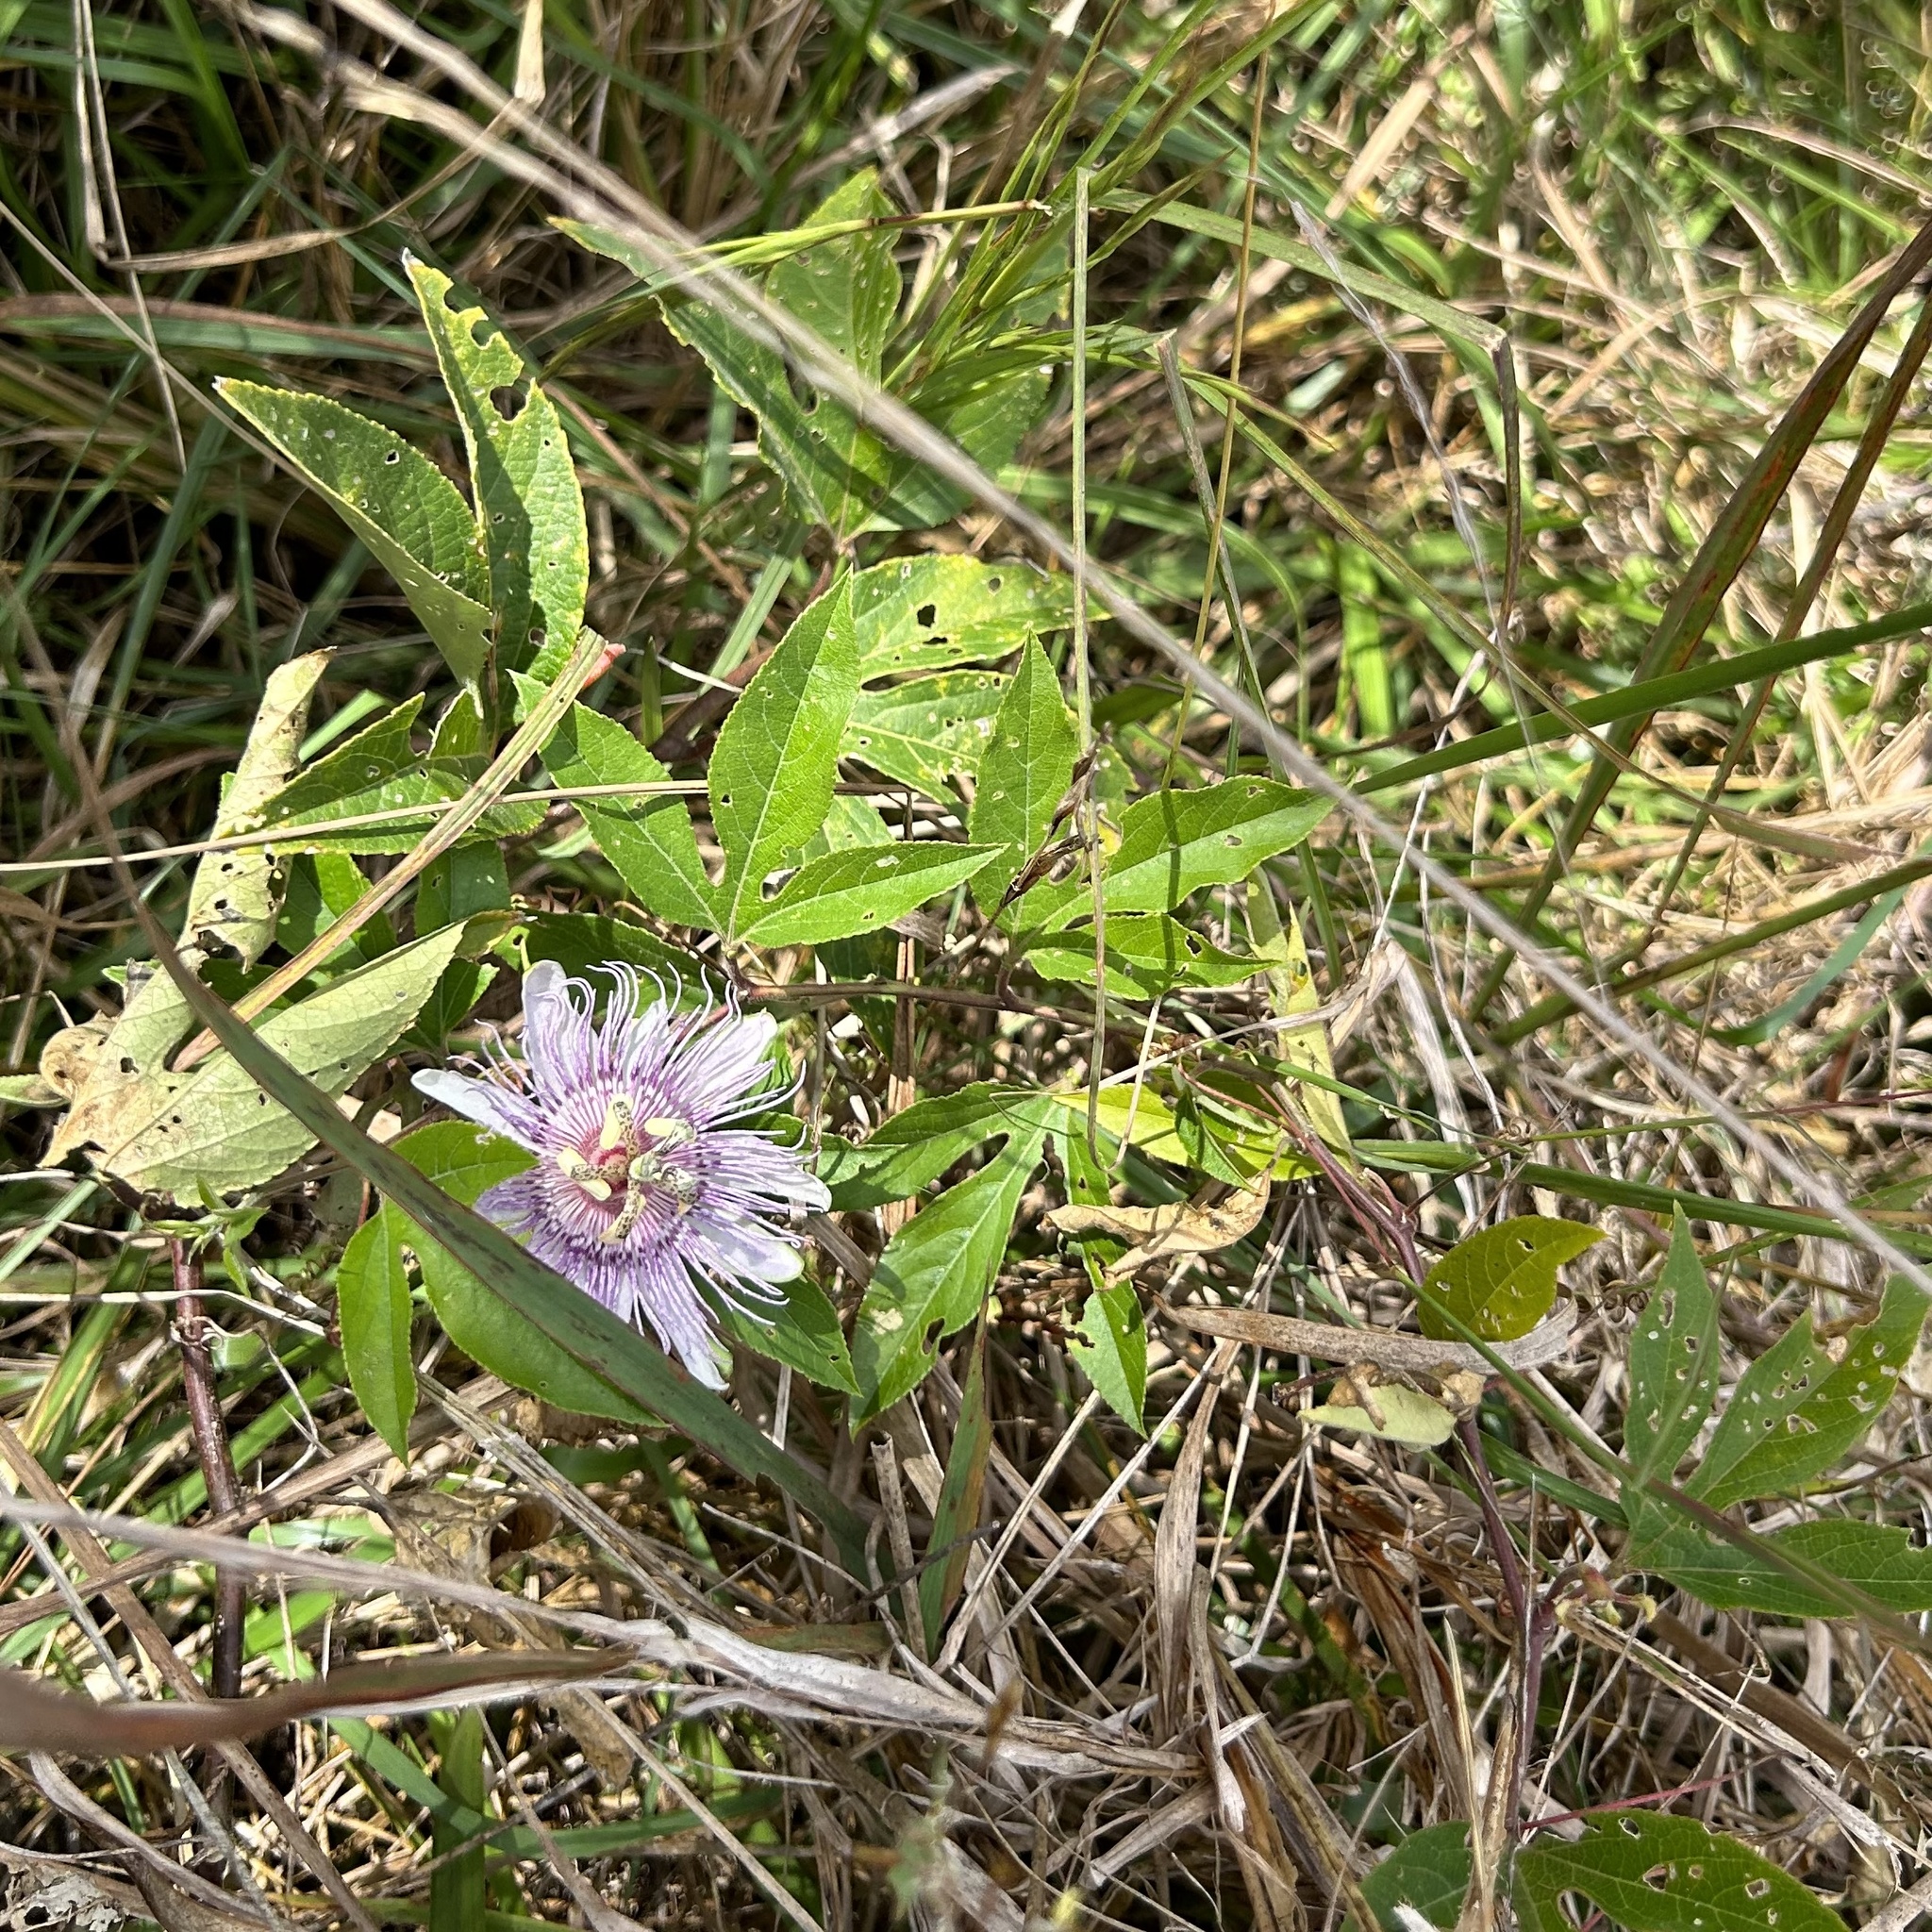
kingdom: Plantae
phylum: Tracheophyta
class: Magnoliopsida
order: Malpighiales
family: Passifloraceae
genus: Passiflora
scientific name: Passiflora incarnata
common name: Apricot-vine
